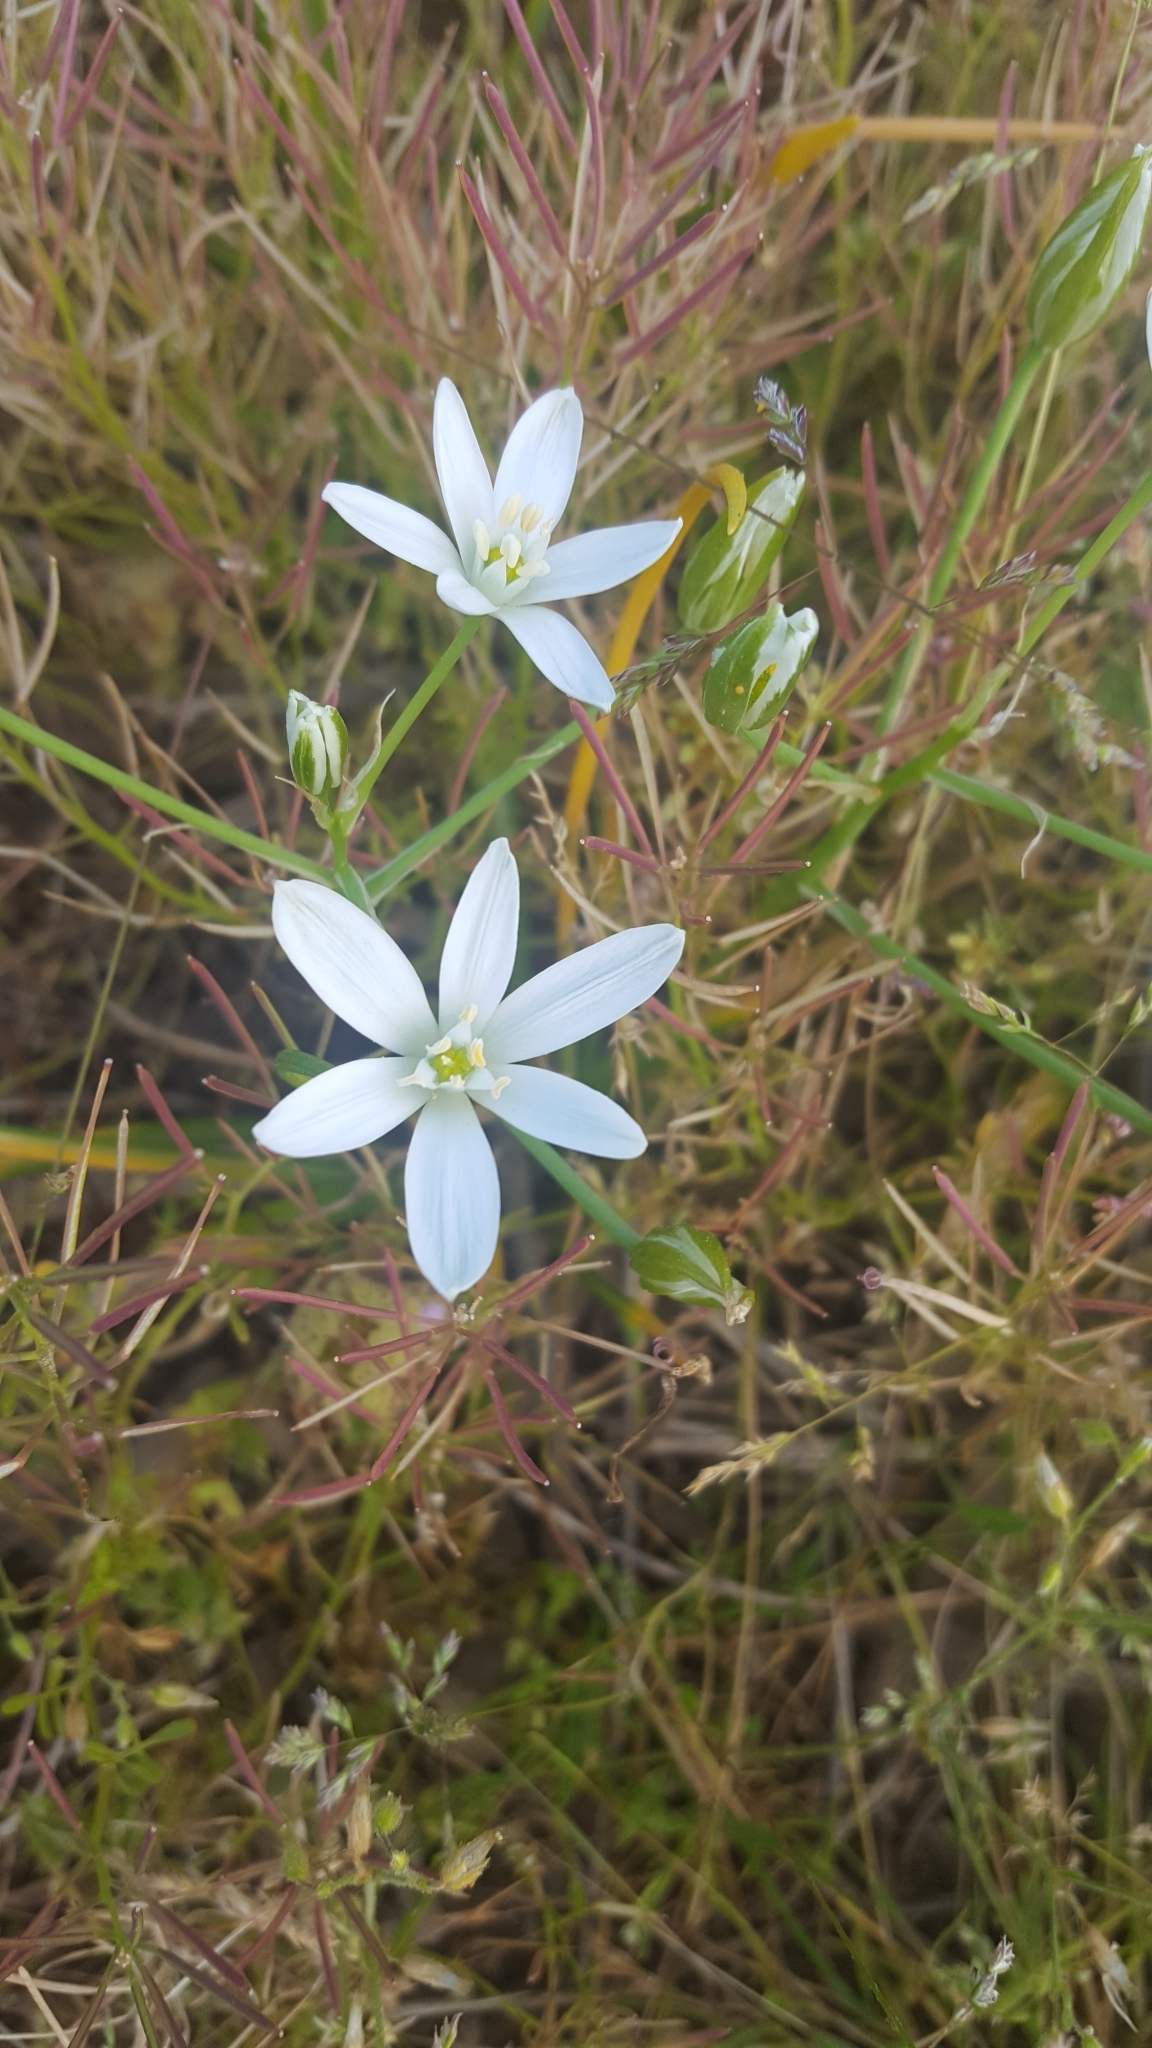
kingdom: Plantae
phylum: Tracheophyta
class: Liliopsida
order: Asparagales
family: Asparagaceae
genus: Ornithogalum
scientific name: Ornithogalum umbellatum
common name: Garden star-of-bethlehem
